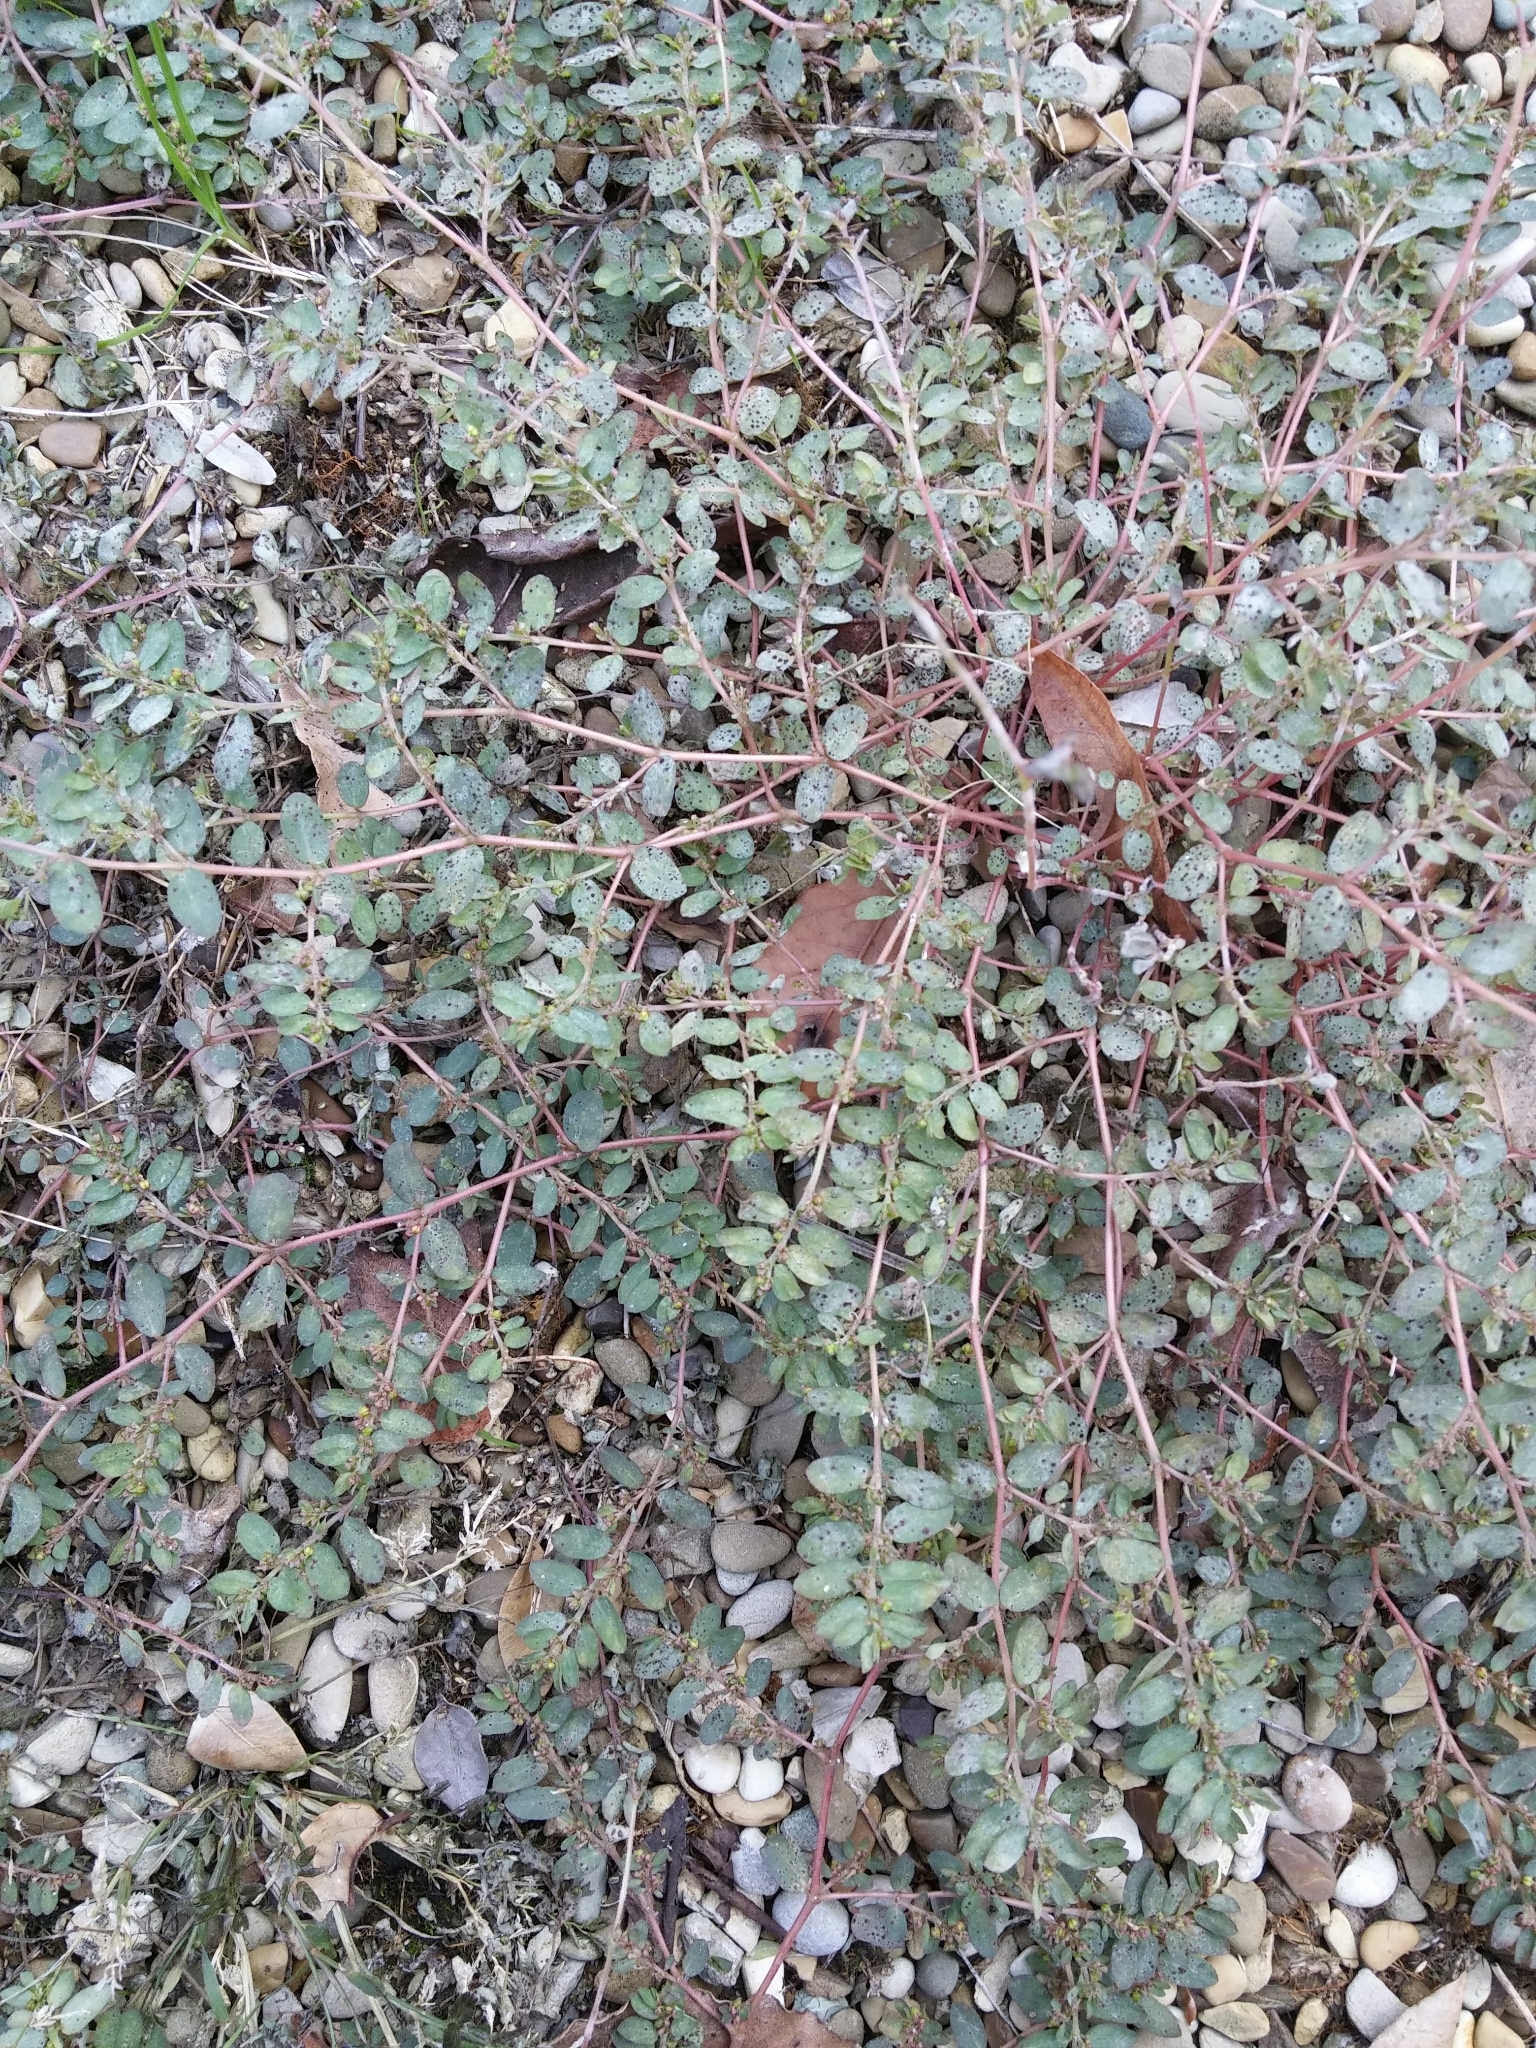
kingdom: Plantae
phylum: Tracheophyta
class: Magnoliopsida
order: Malpighiales
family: Euphorbiaceae
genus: Euphorbia
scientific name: Euphorbia prostrata
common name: Prostrate sandmat
